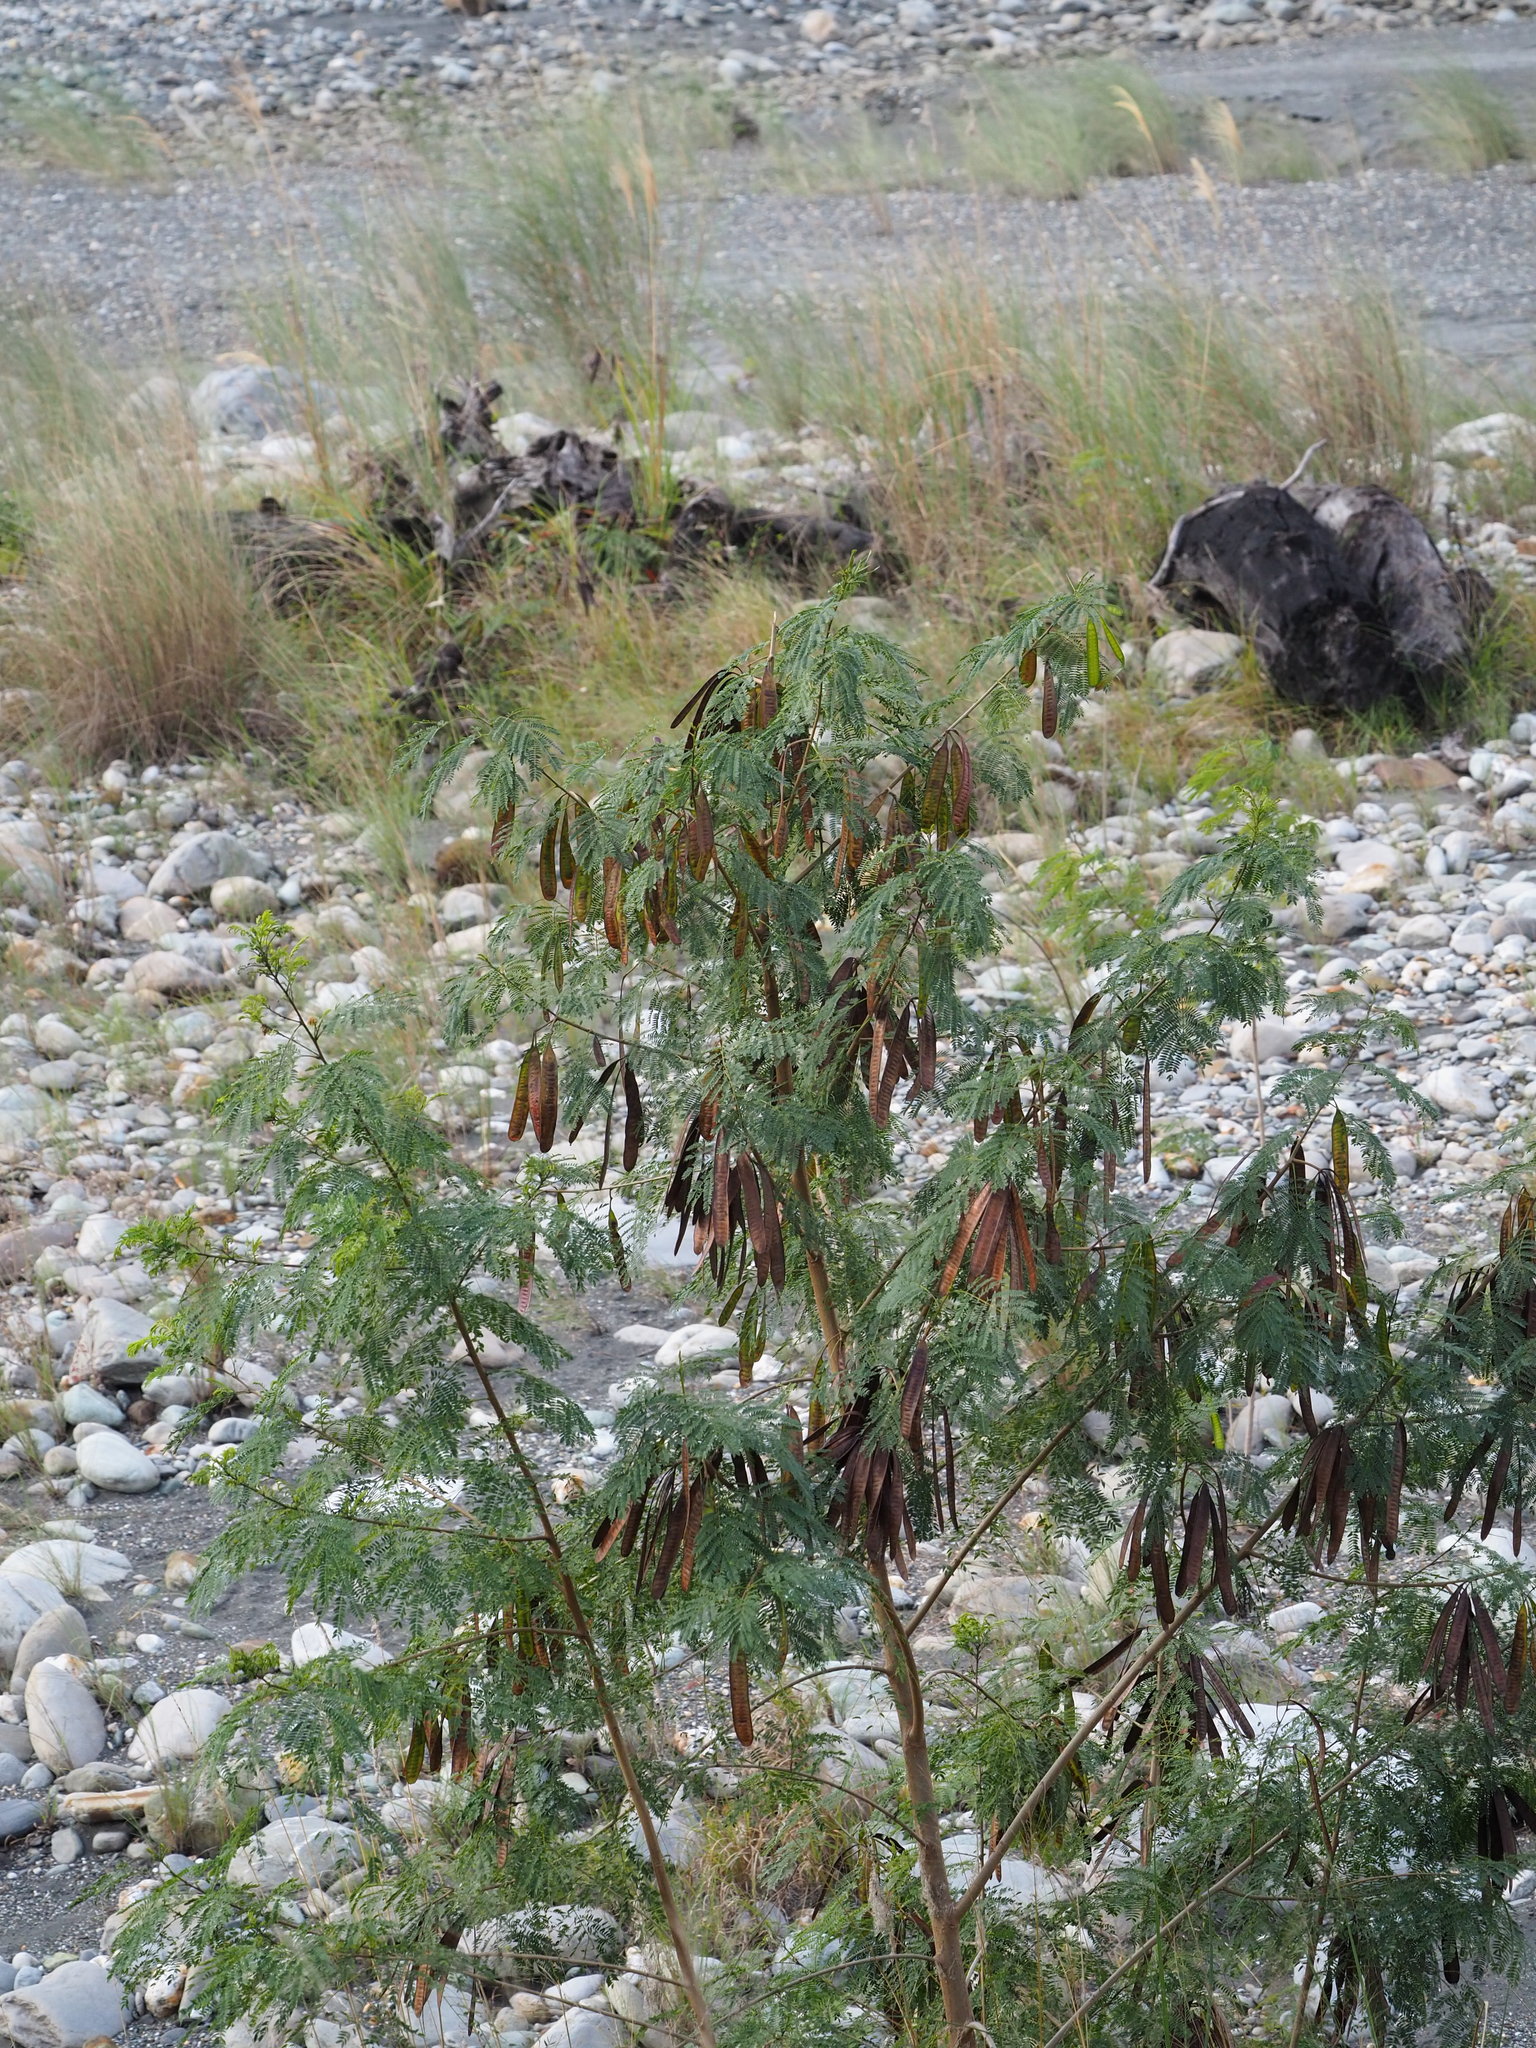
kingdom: Plantae
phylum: Tracheophyta
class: Magnoliopsida
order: Fabales
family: Fabaceae
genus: Leucaena
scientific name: Leucaena leucocephala
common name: White leadtree
